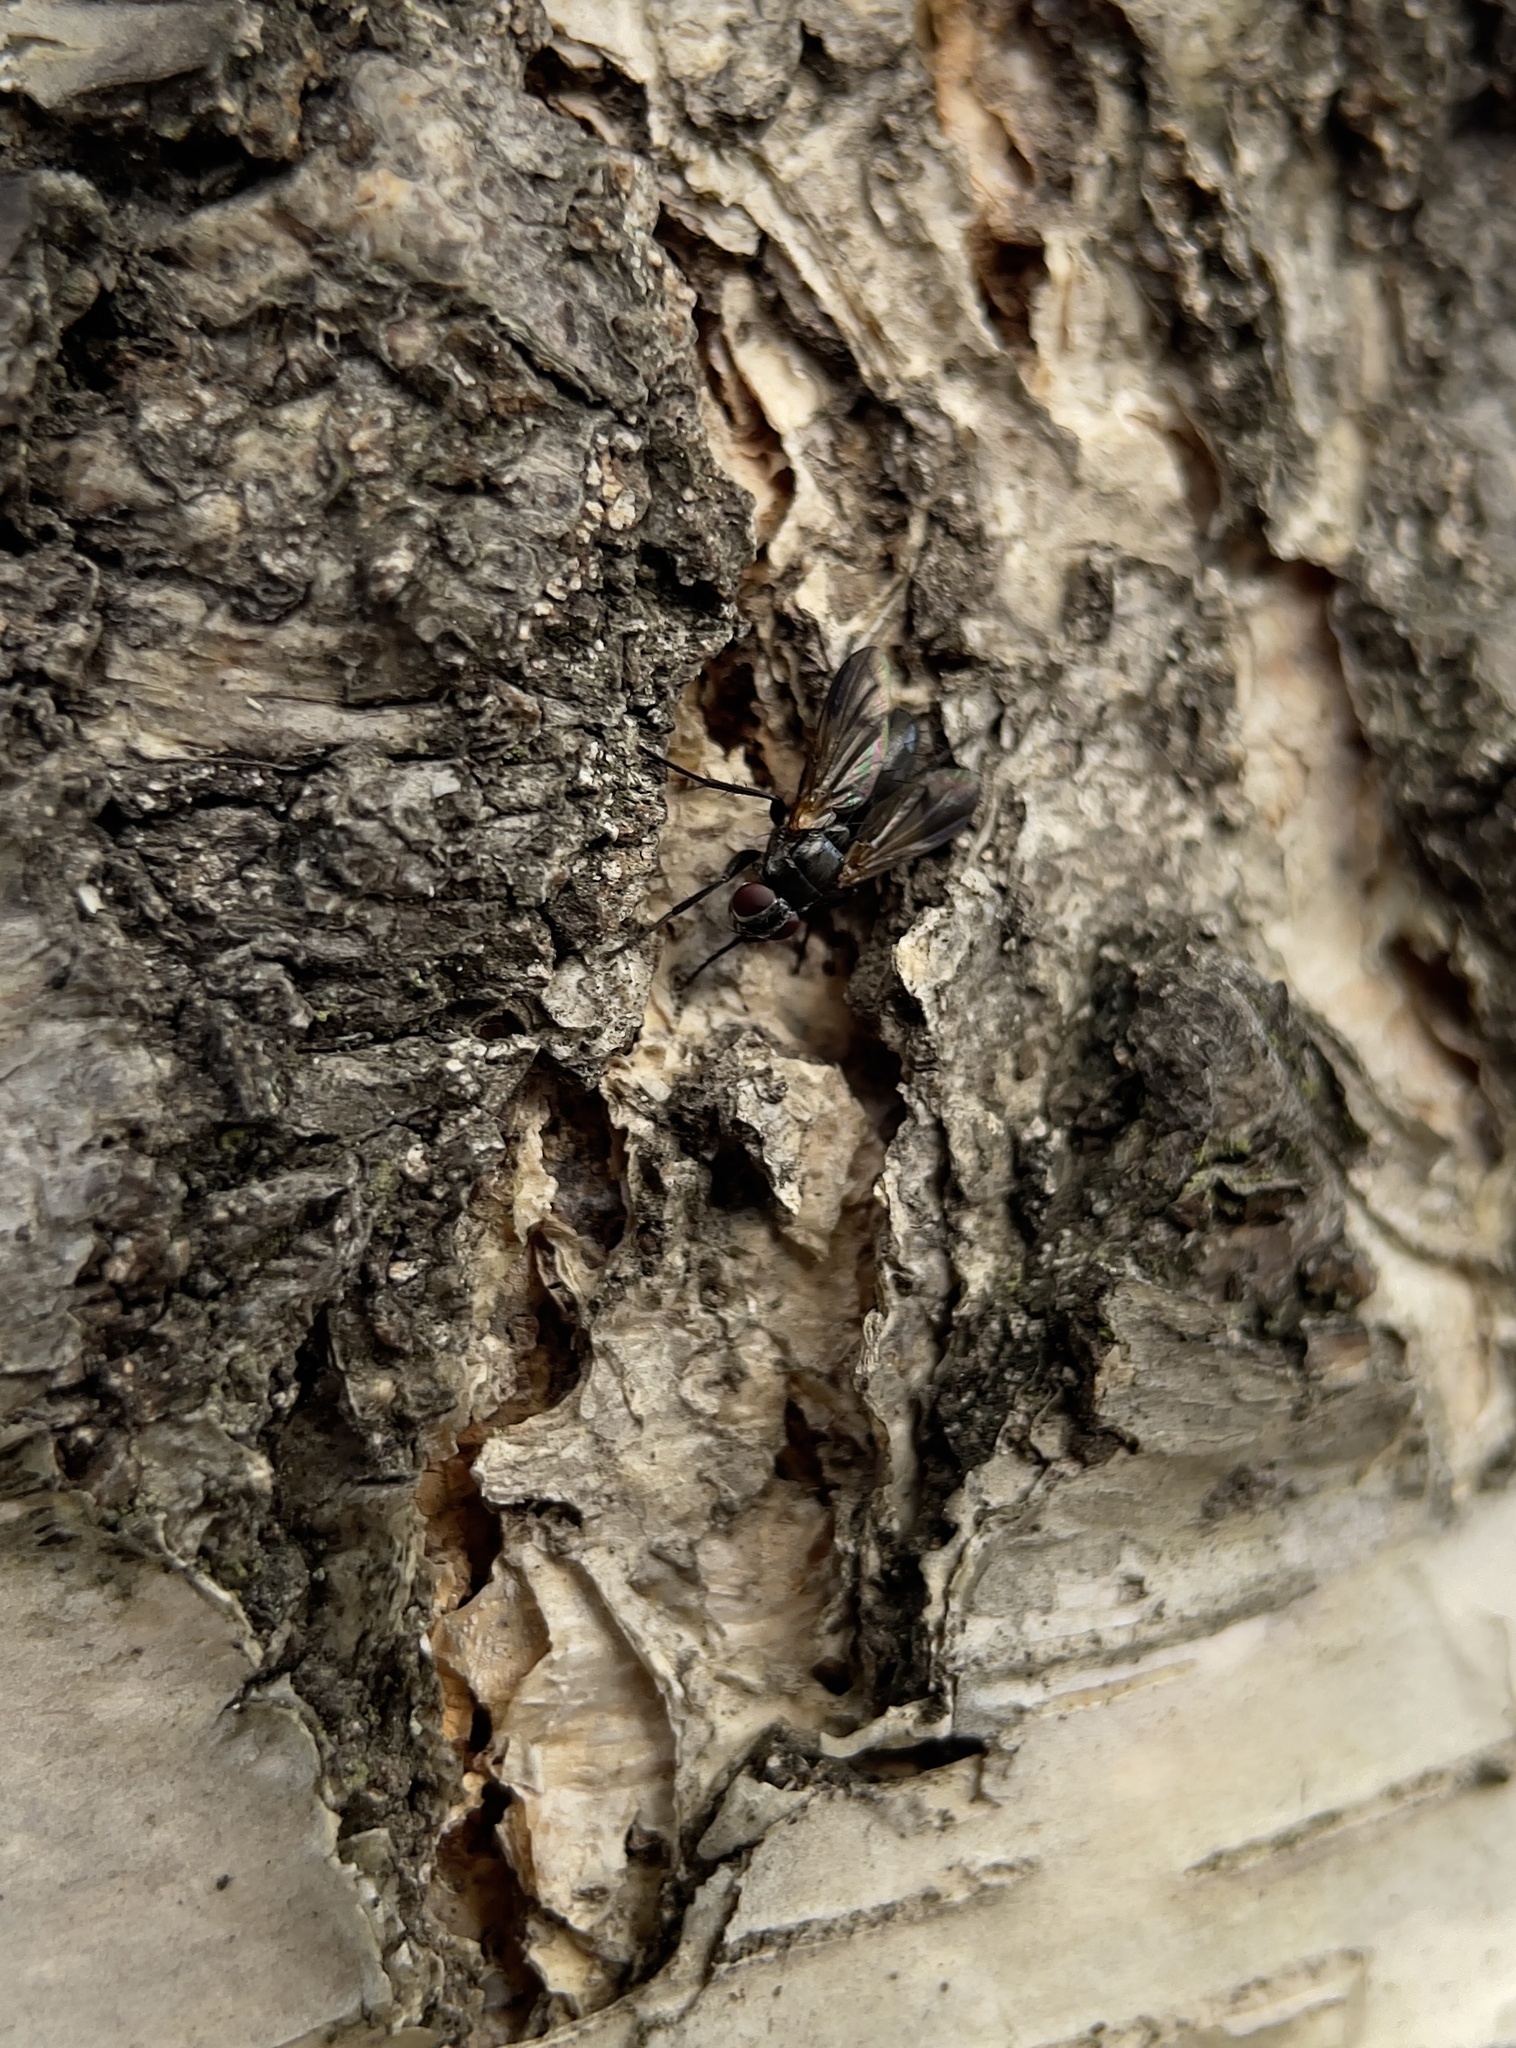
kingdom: Animalia
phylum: Arthropoda
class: Insecta
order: Diptera
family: Calliphoridae
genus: Paykullia
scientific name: Paykullia maculata
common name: Picture-winged woodlouse-fly
